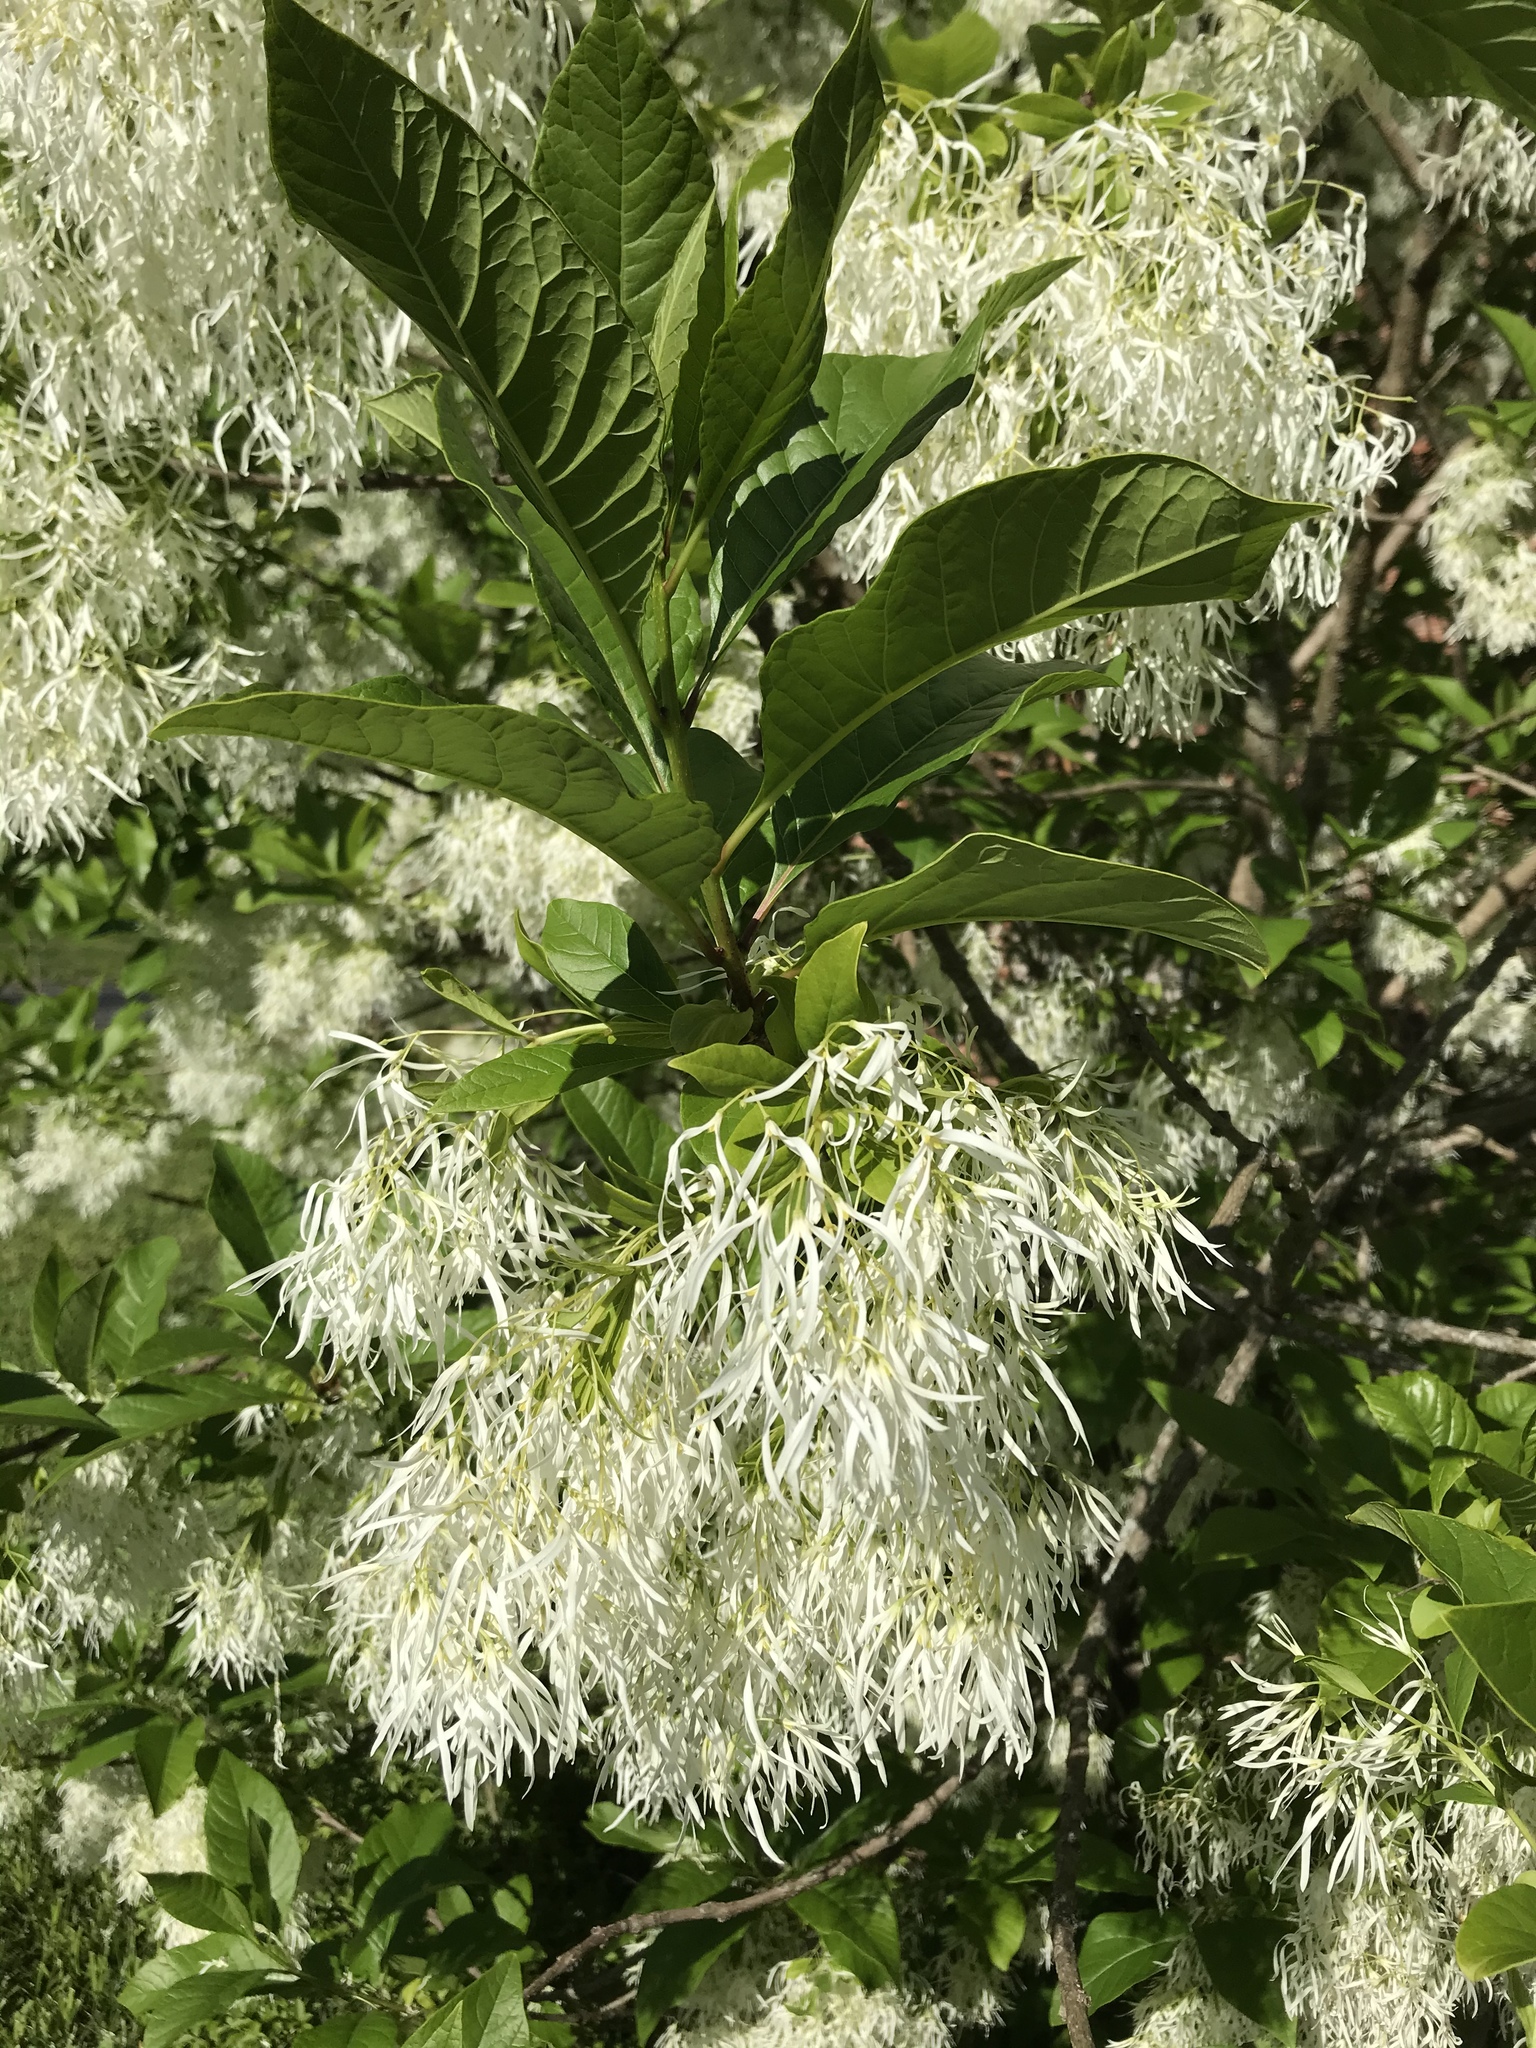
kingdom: Plantae
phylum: Tracheophyta
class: Magnoliopsida
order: Lamiales
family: Oleaceae
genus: Chionanthus
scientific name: Chionanthus virginicus
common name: American fringetree
